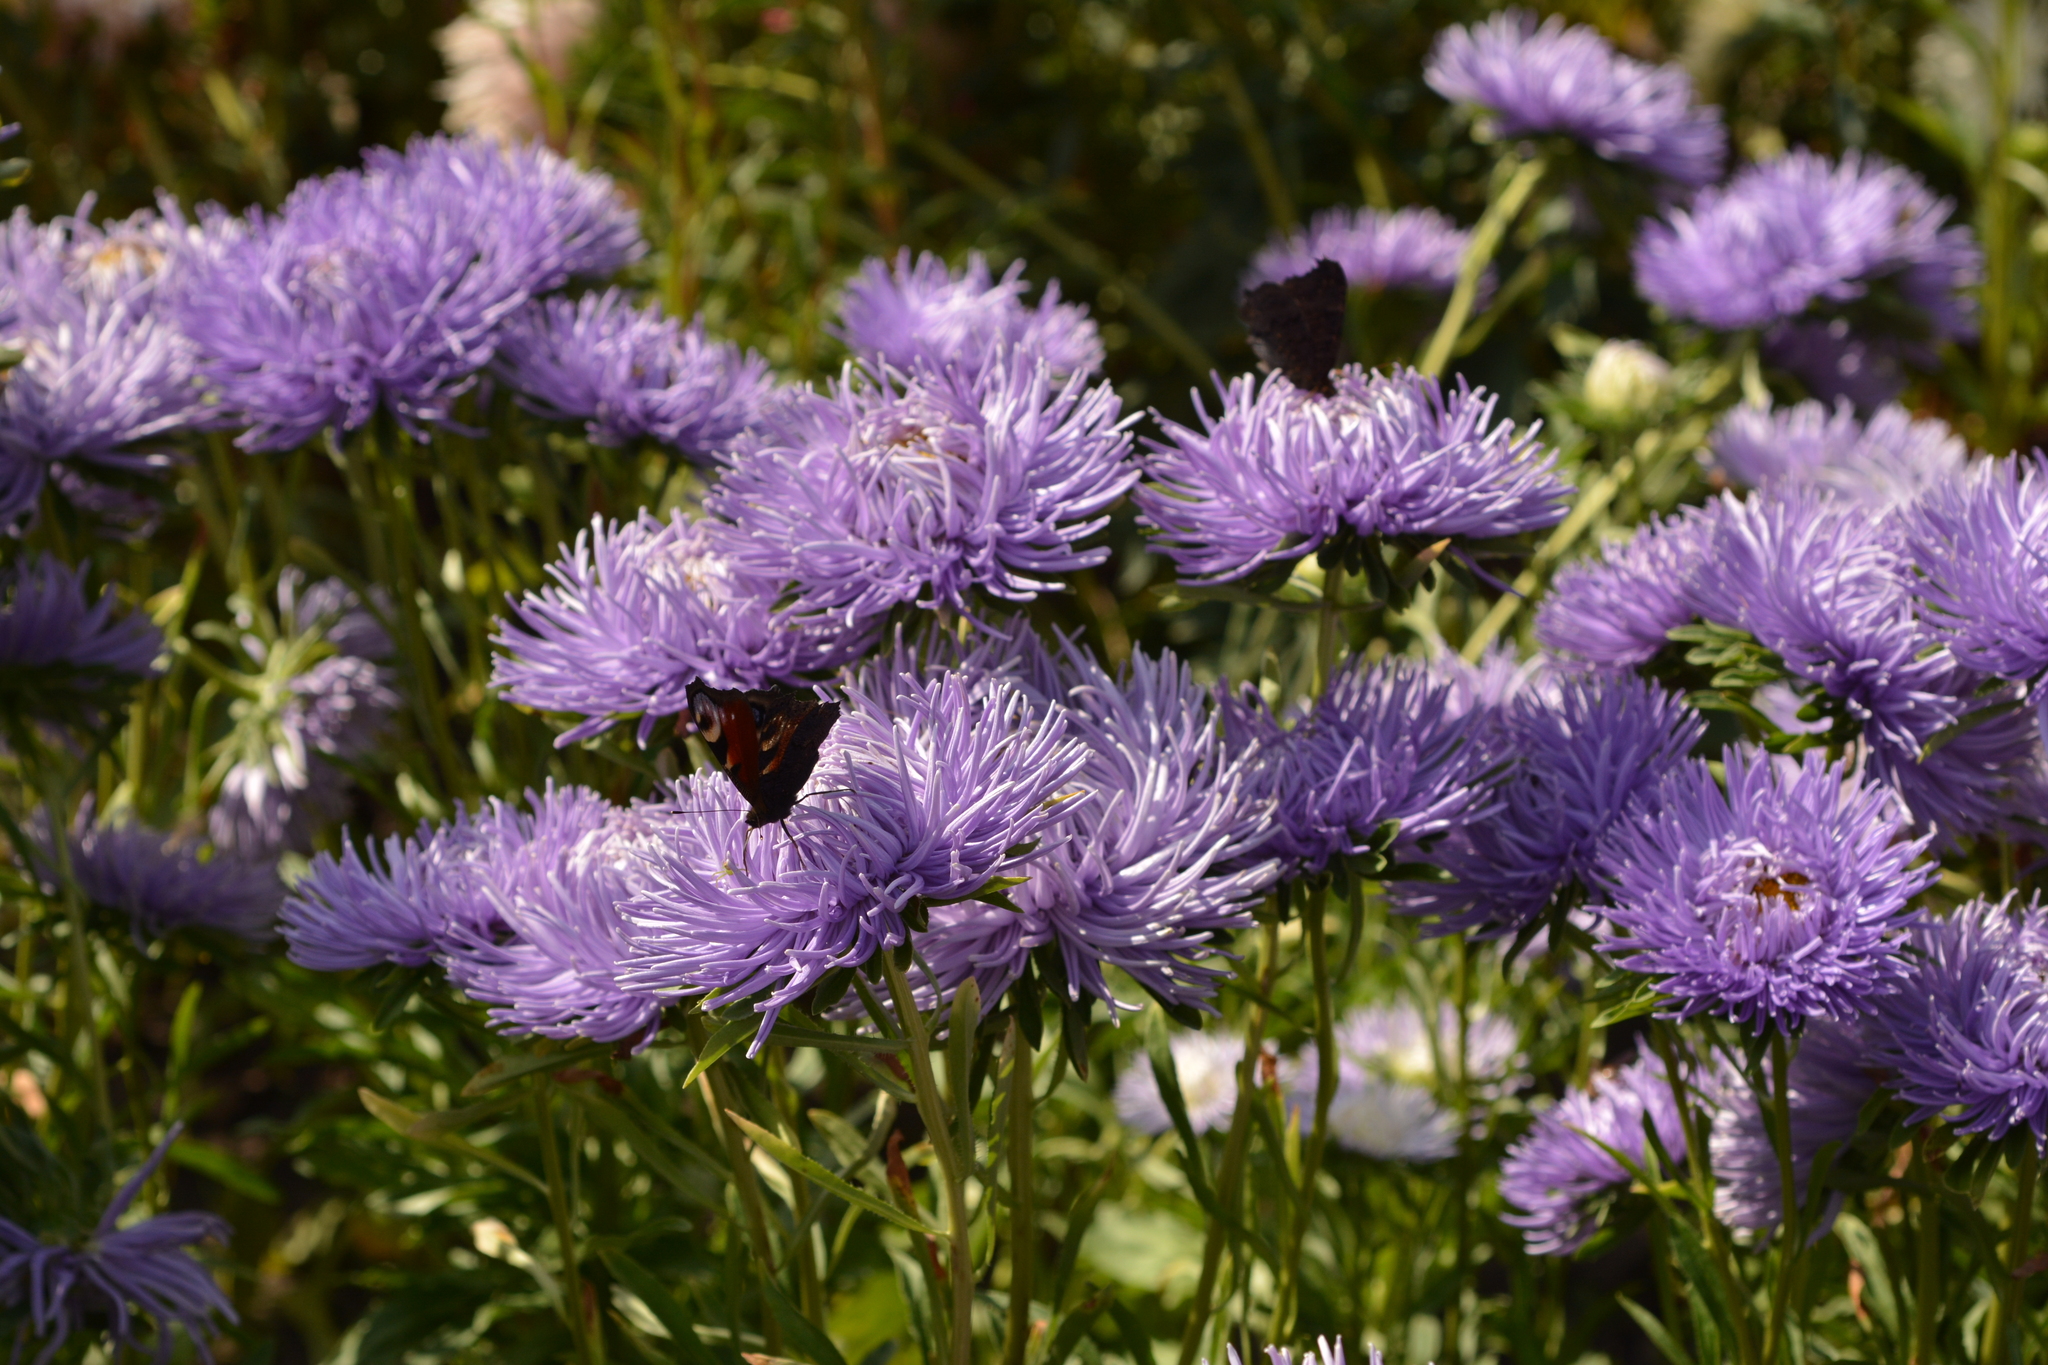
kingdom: Animalia
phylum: Arthropoda
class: Insecta
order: Lepidoptera
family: Nymphalidae
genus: Aglais
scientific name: Aglais io
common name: Peacock
